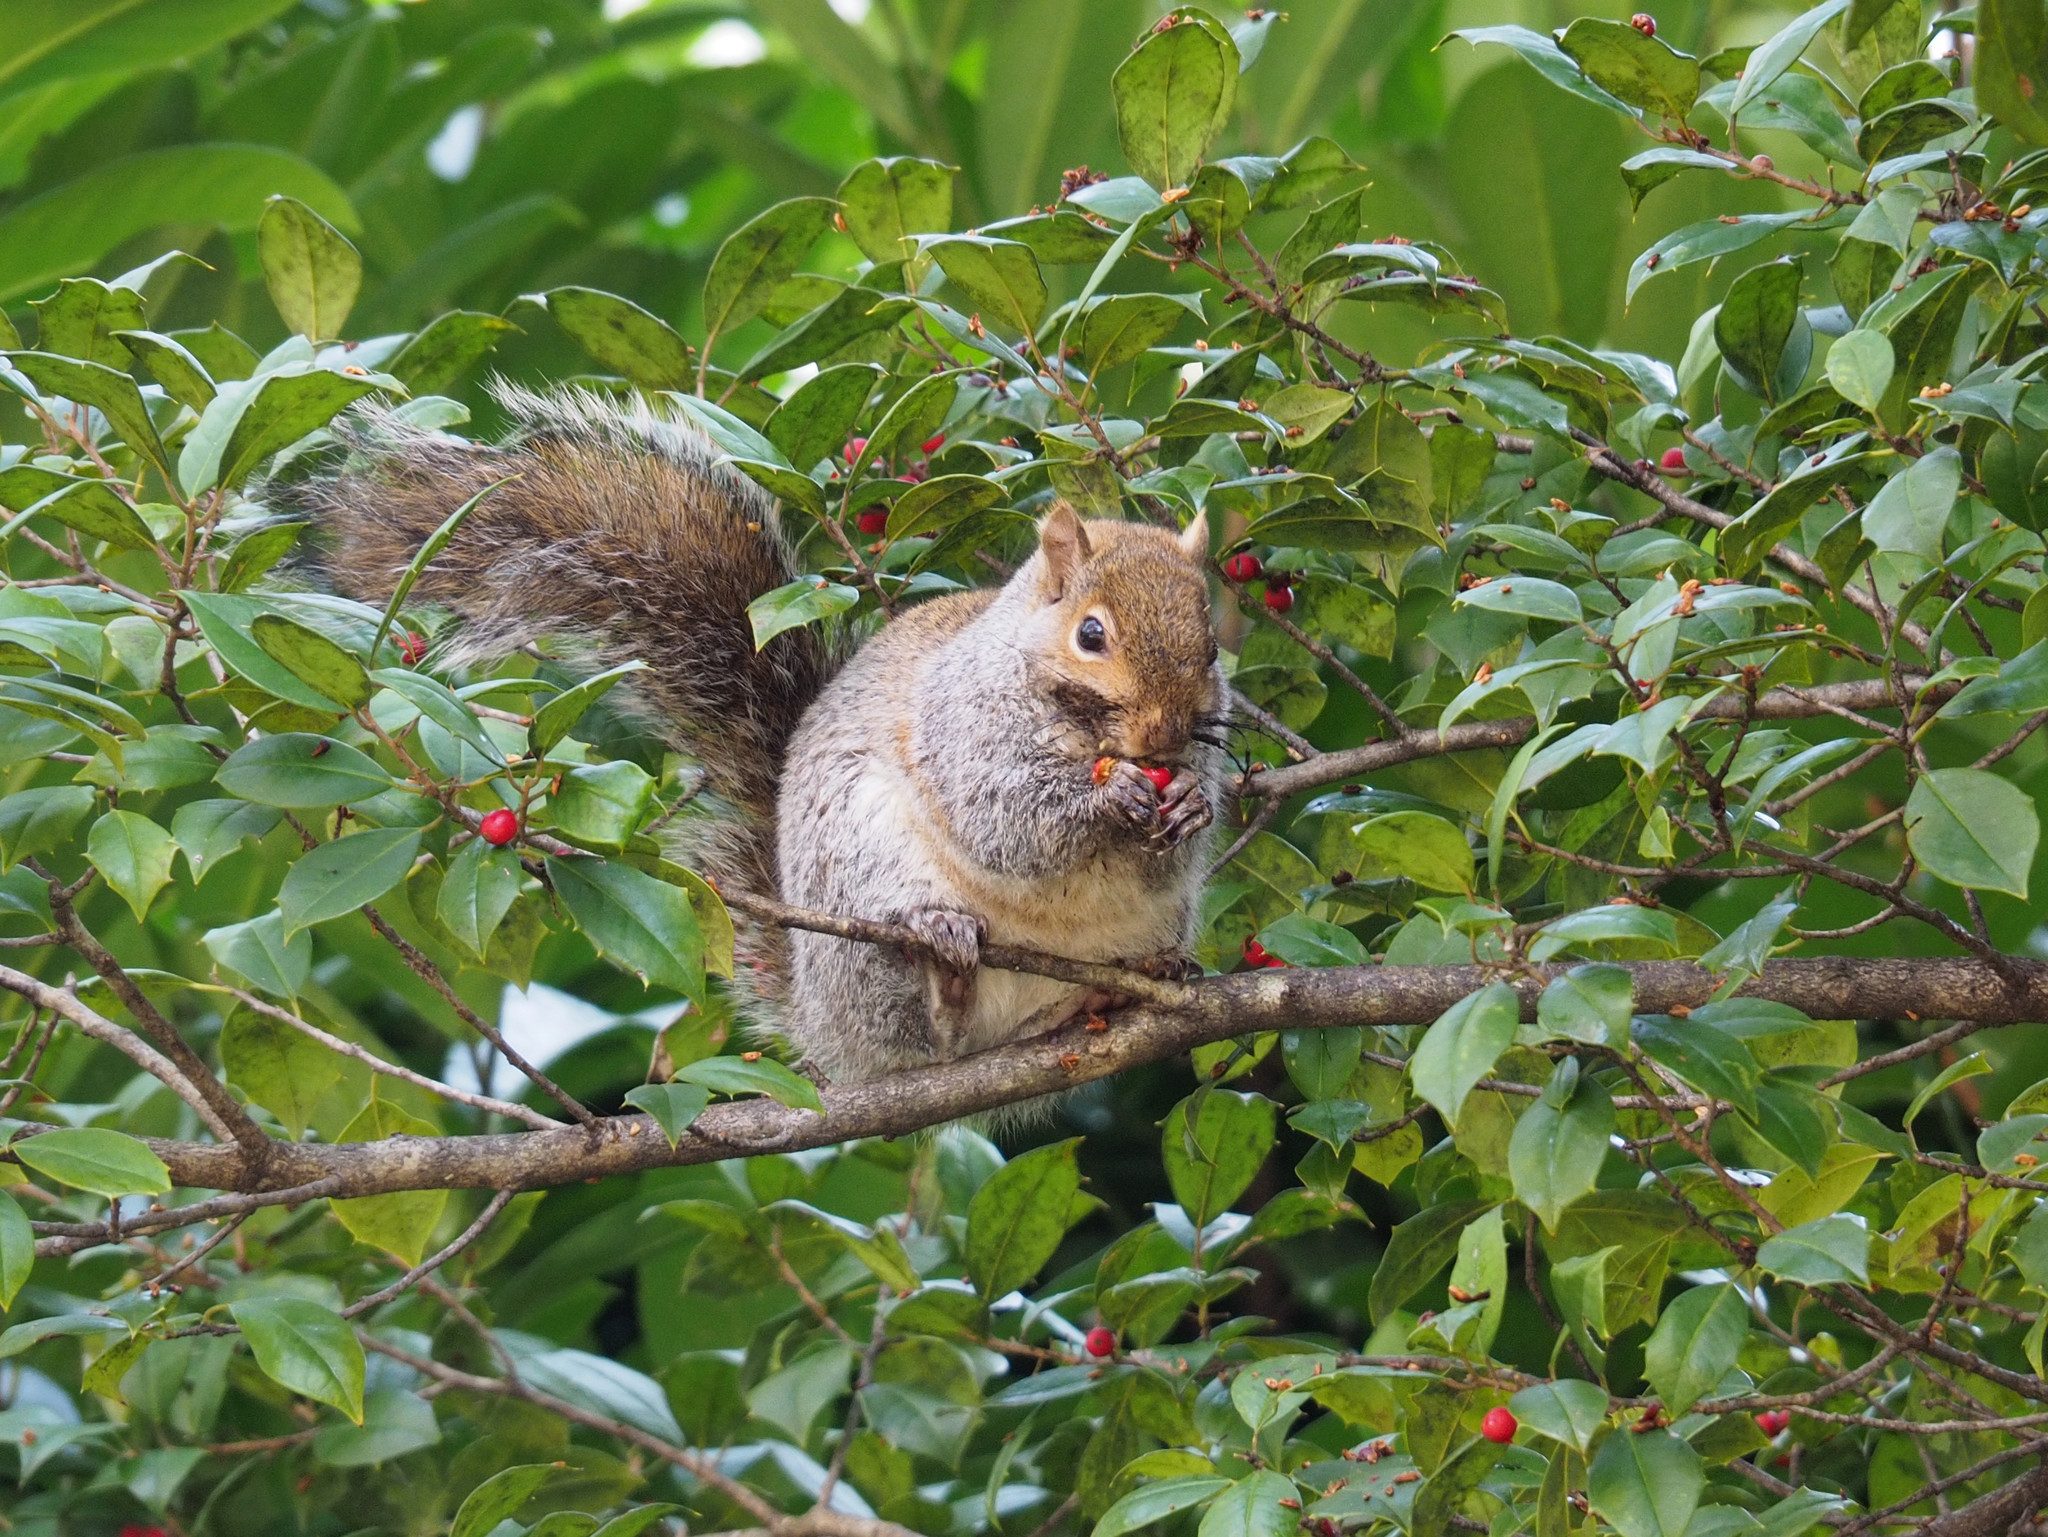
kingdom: Animalia
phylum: Chordata
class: Mammalia
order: Rodentia
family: Sciuridae
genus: Sciurus
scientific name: Sciurus carolinensis
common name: Eastern gray squirrel
